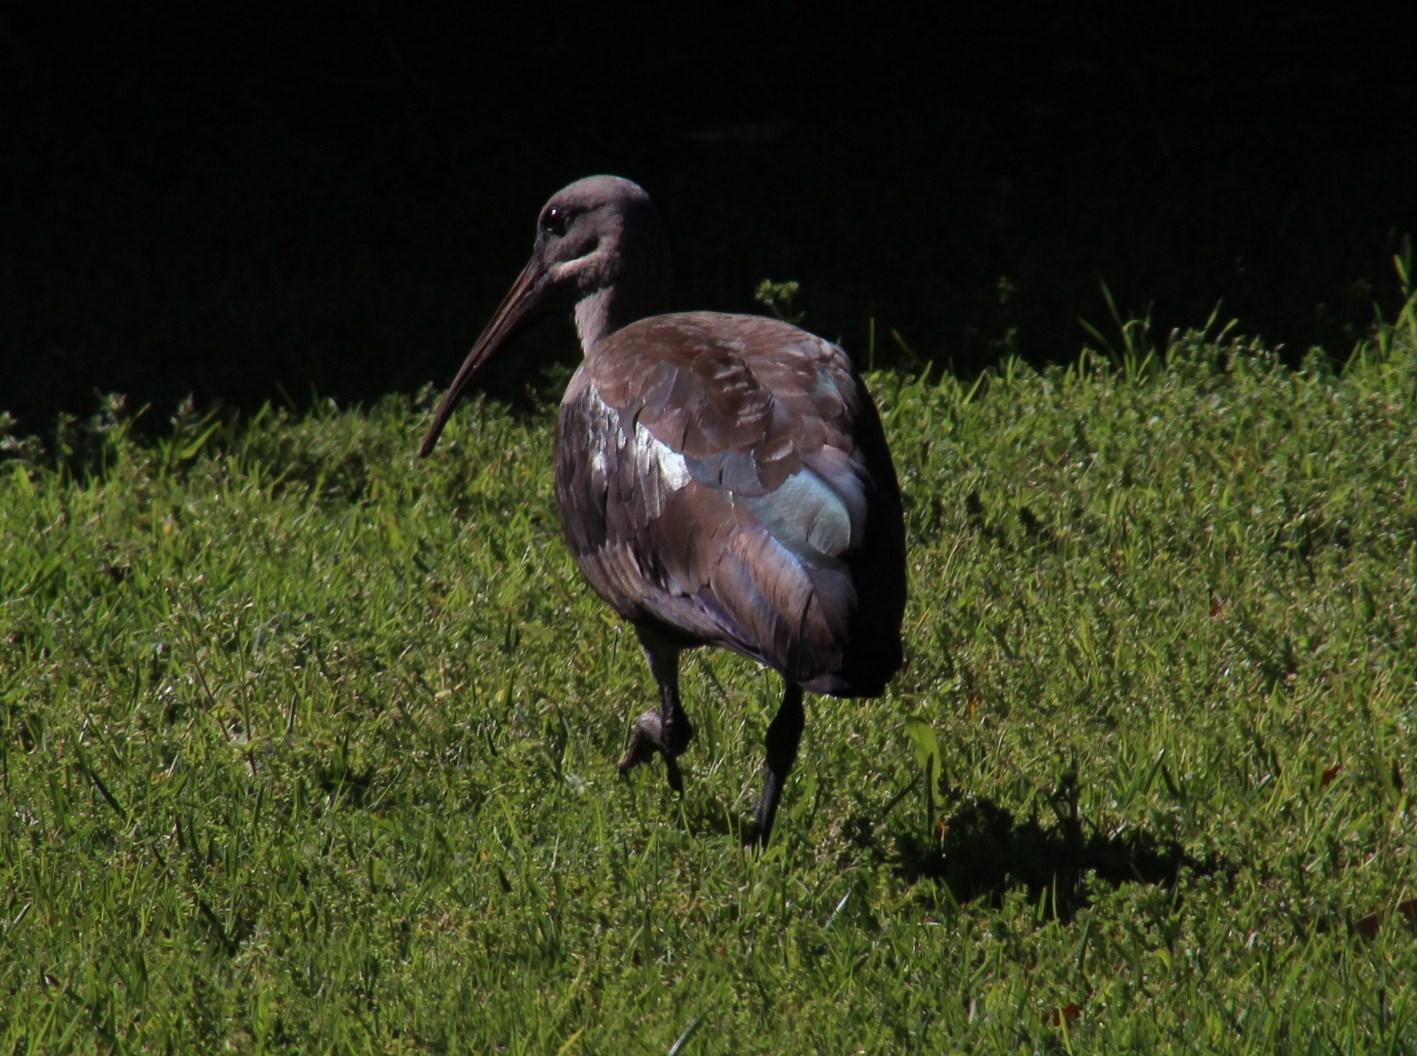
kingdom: Animalia
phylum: Chordata
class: Aves
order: Pelecaniformes
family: Threskiornithidae
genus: Bostrychia
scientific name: Bostrychia hagedash
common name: Hadada ibis
